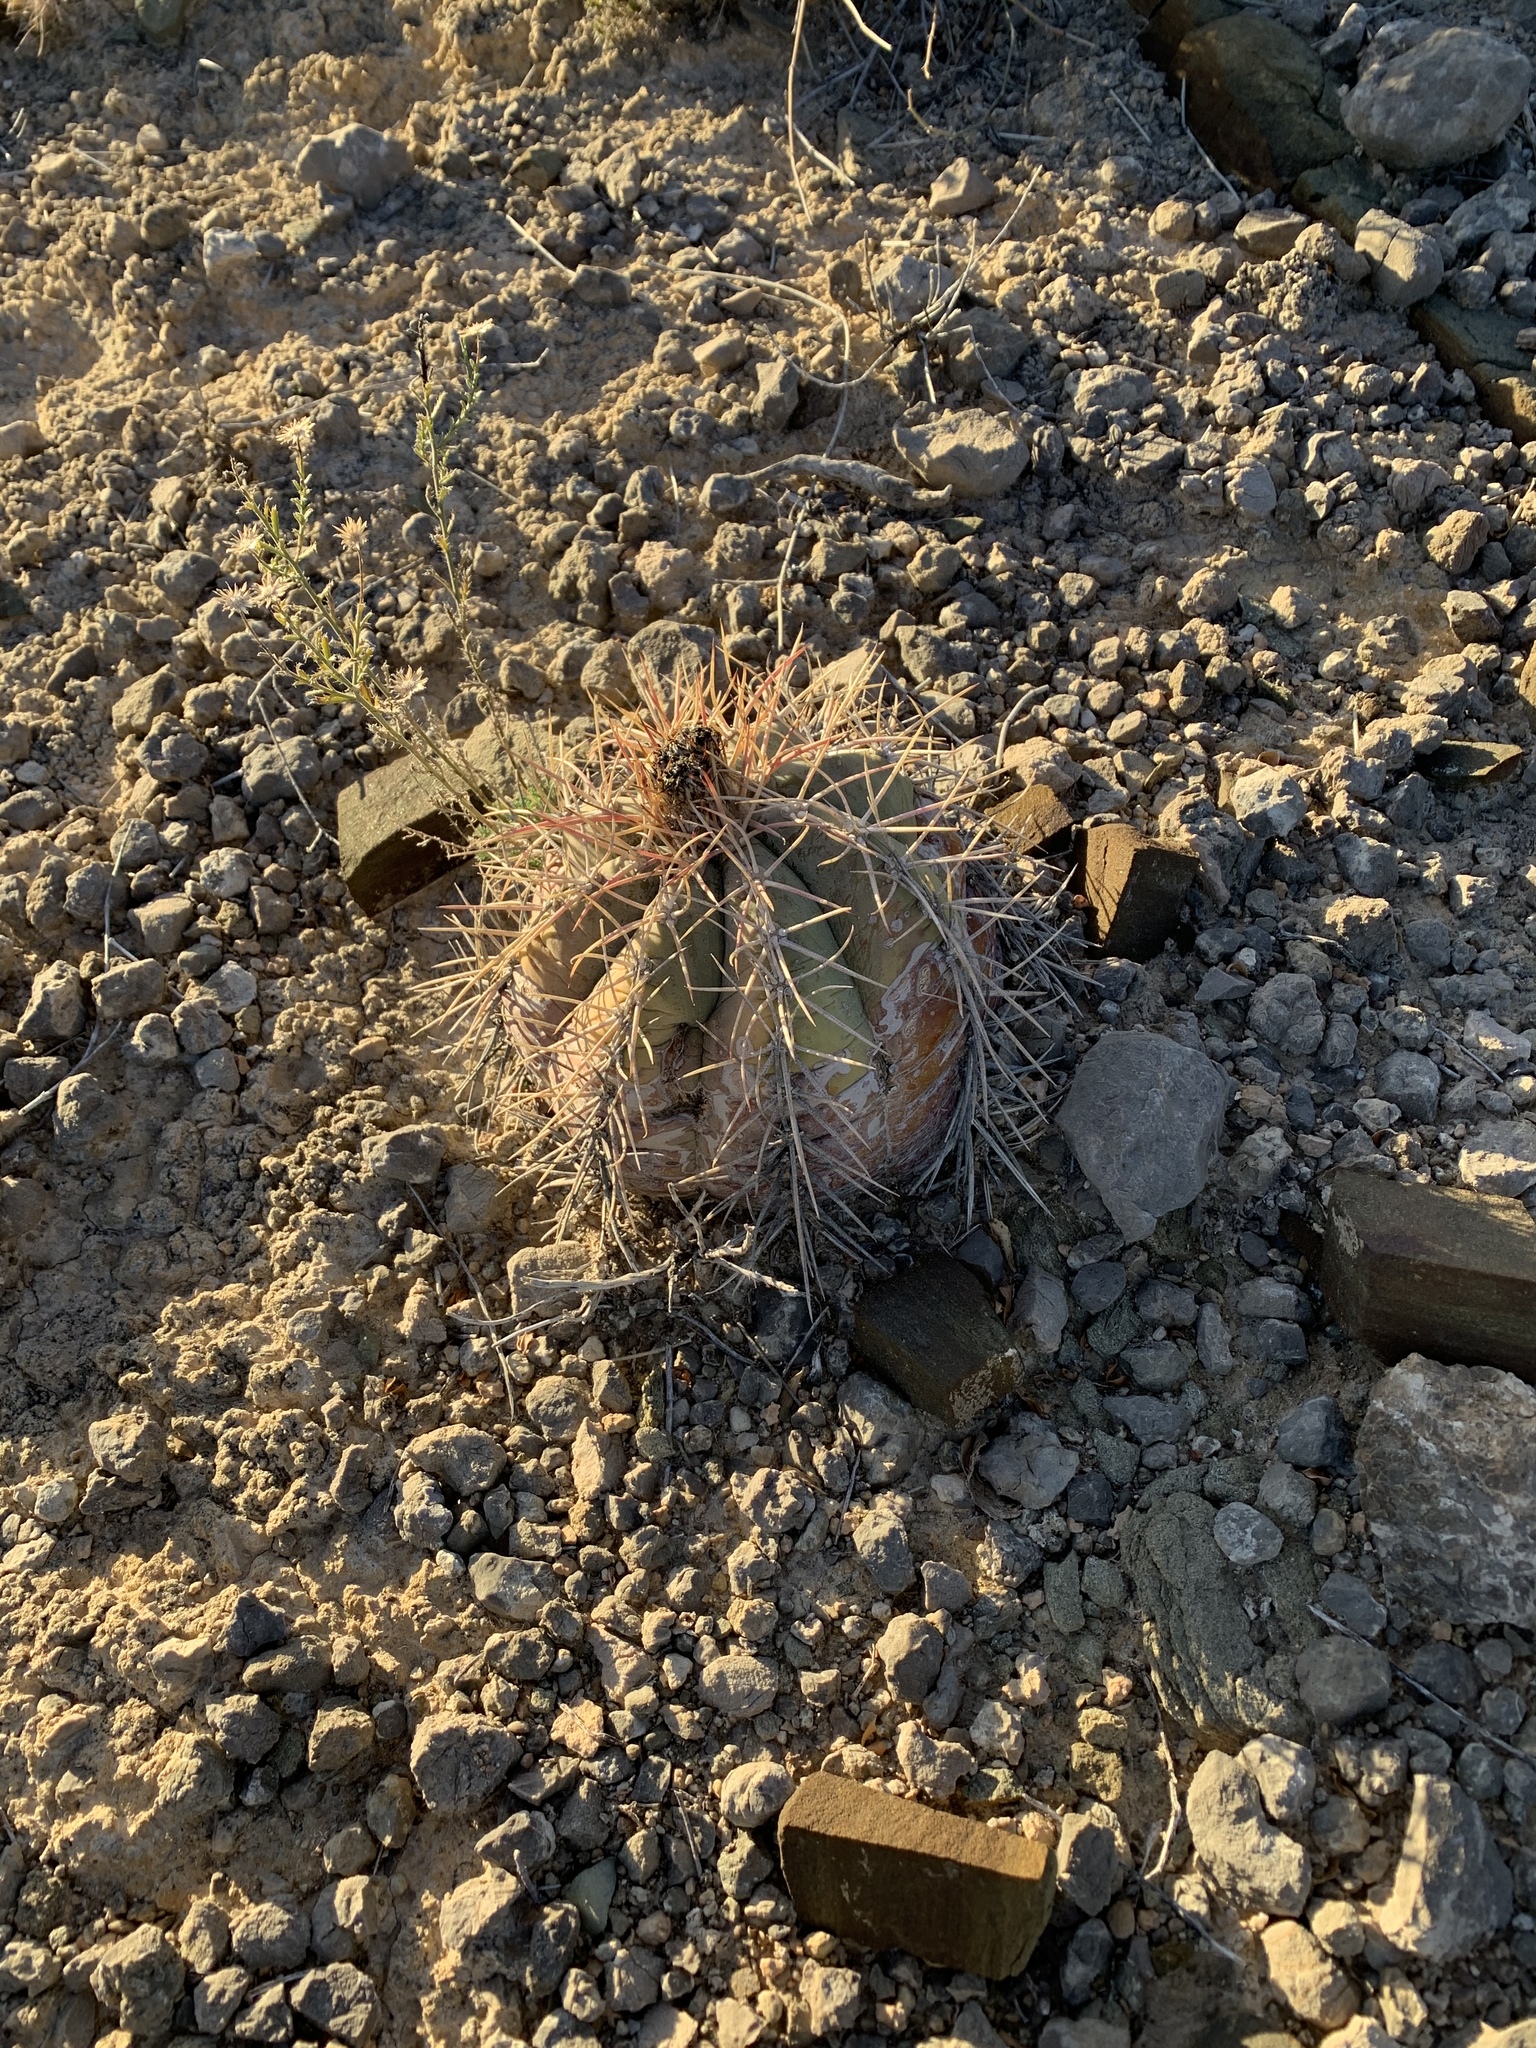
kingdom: Plantae
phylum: Tracheophyta
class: Magnoliopsida
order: Caryophyllales
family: Cactaceae
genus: Echinocactus
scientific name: Echinocactus horizonthalonius
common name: Devilshead
